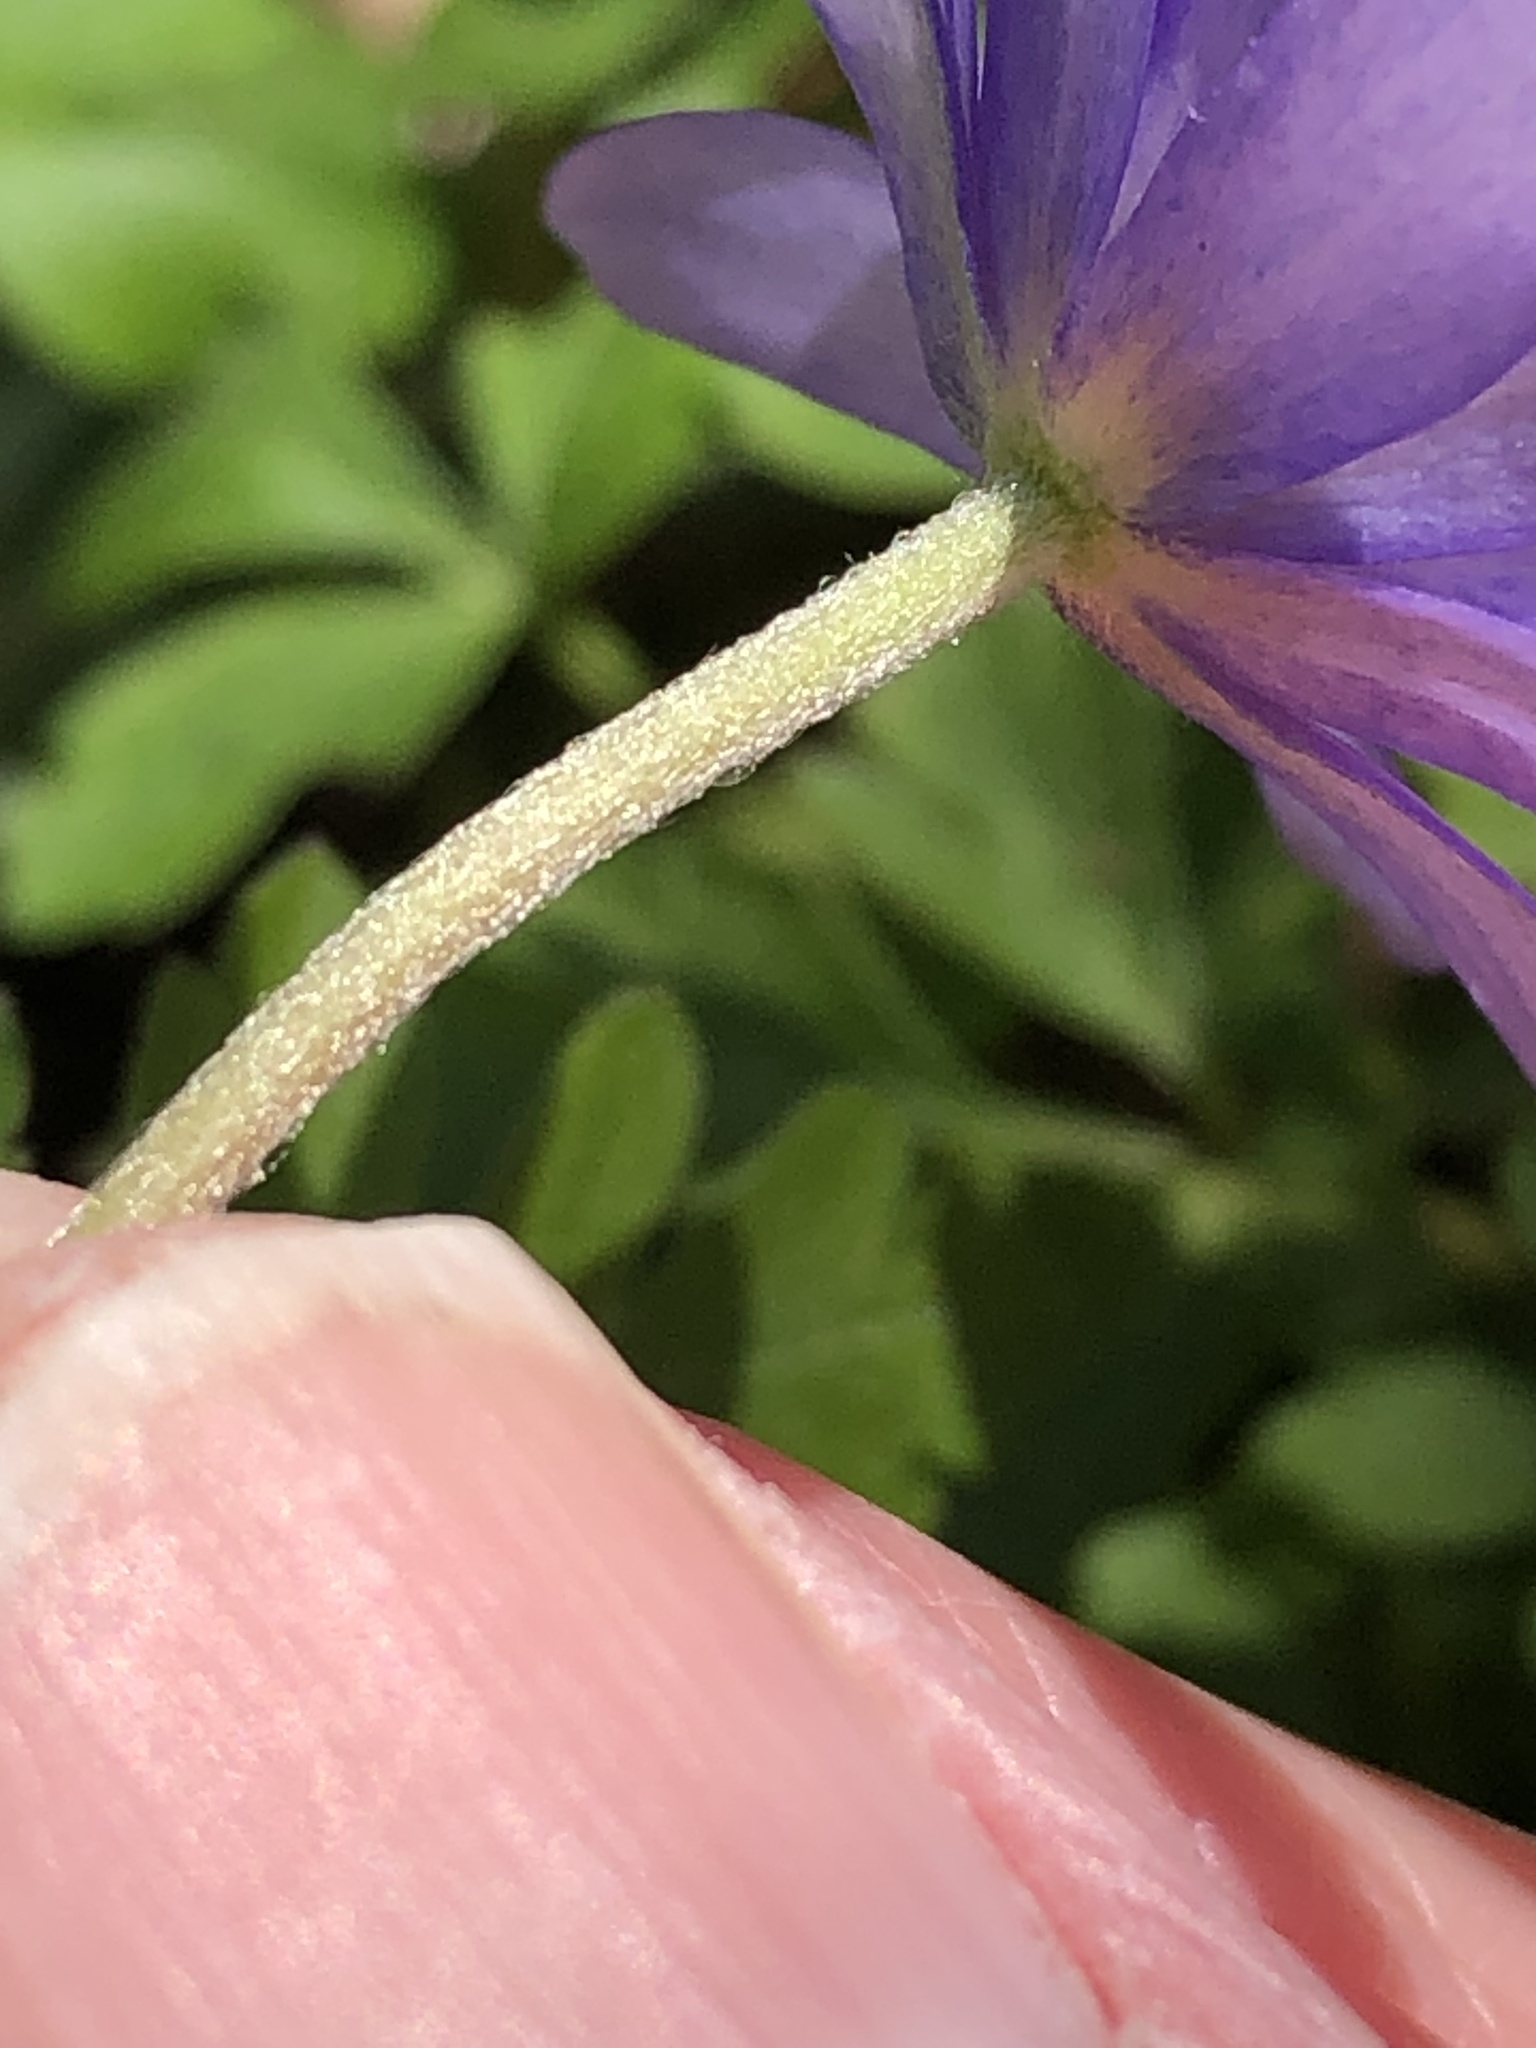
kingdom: Plantae
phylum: Tracheophyta
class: Magnoliopsida
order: Ranunculales
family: Ranunculaceae
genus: Anemone
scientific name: Anemone apennina
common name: Blue anemone
